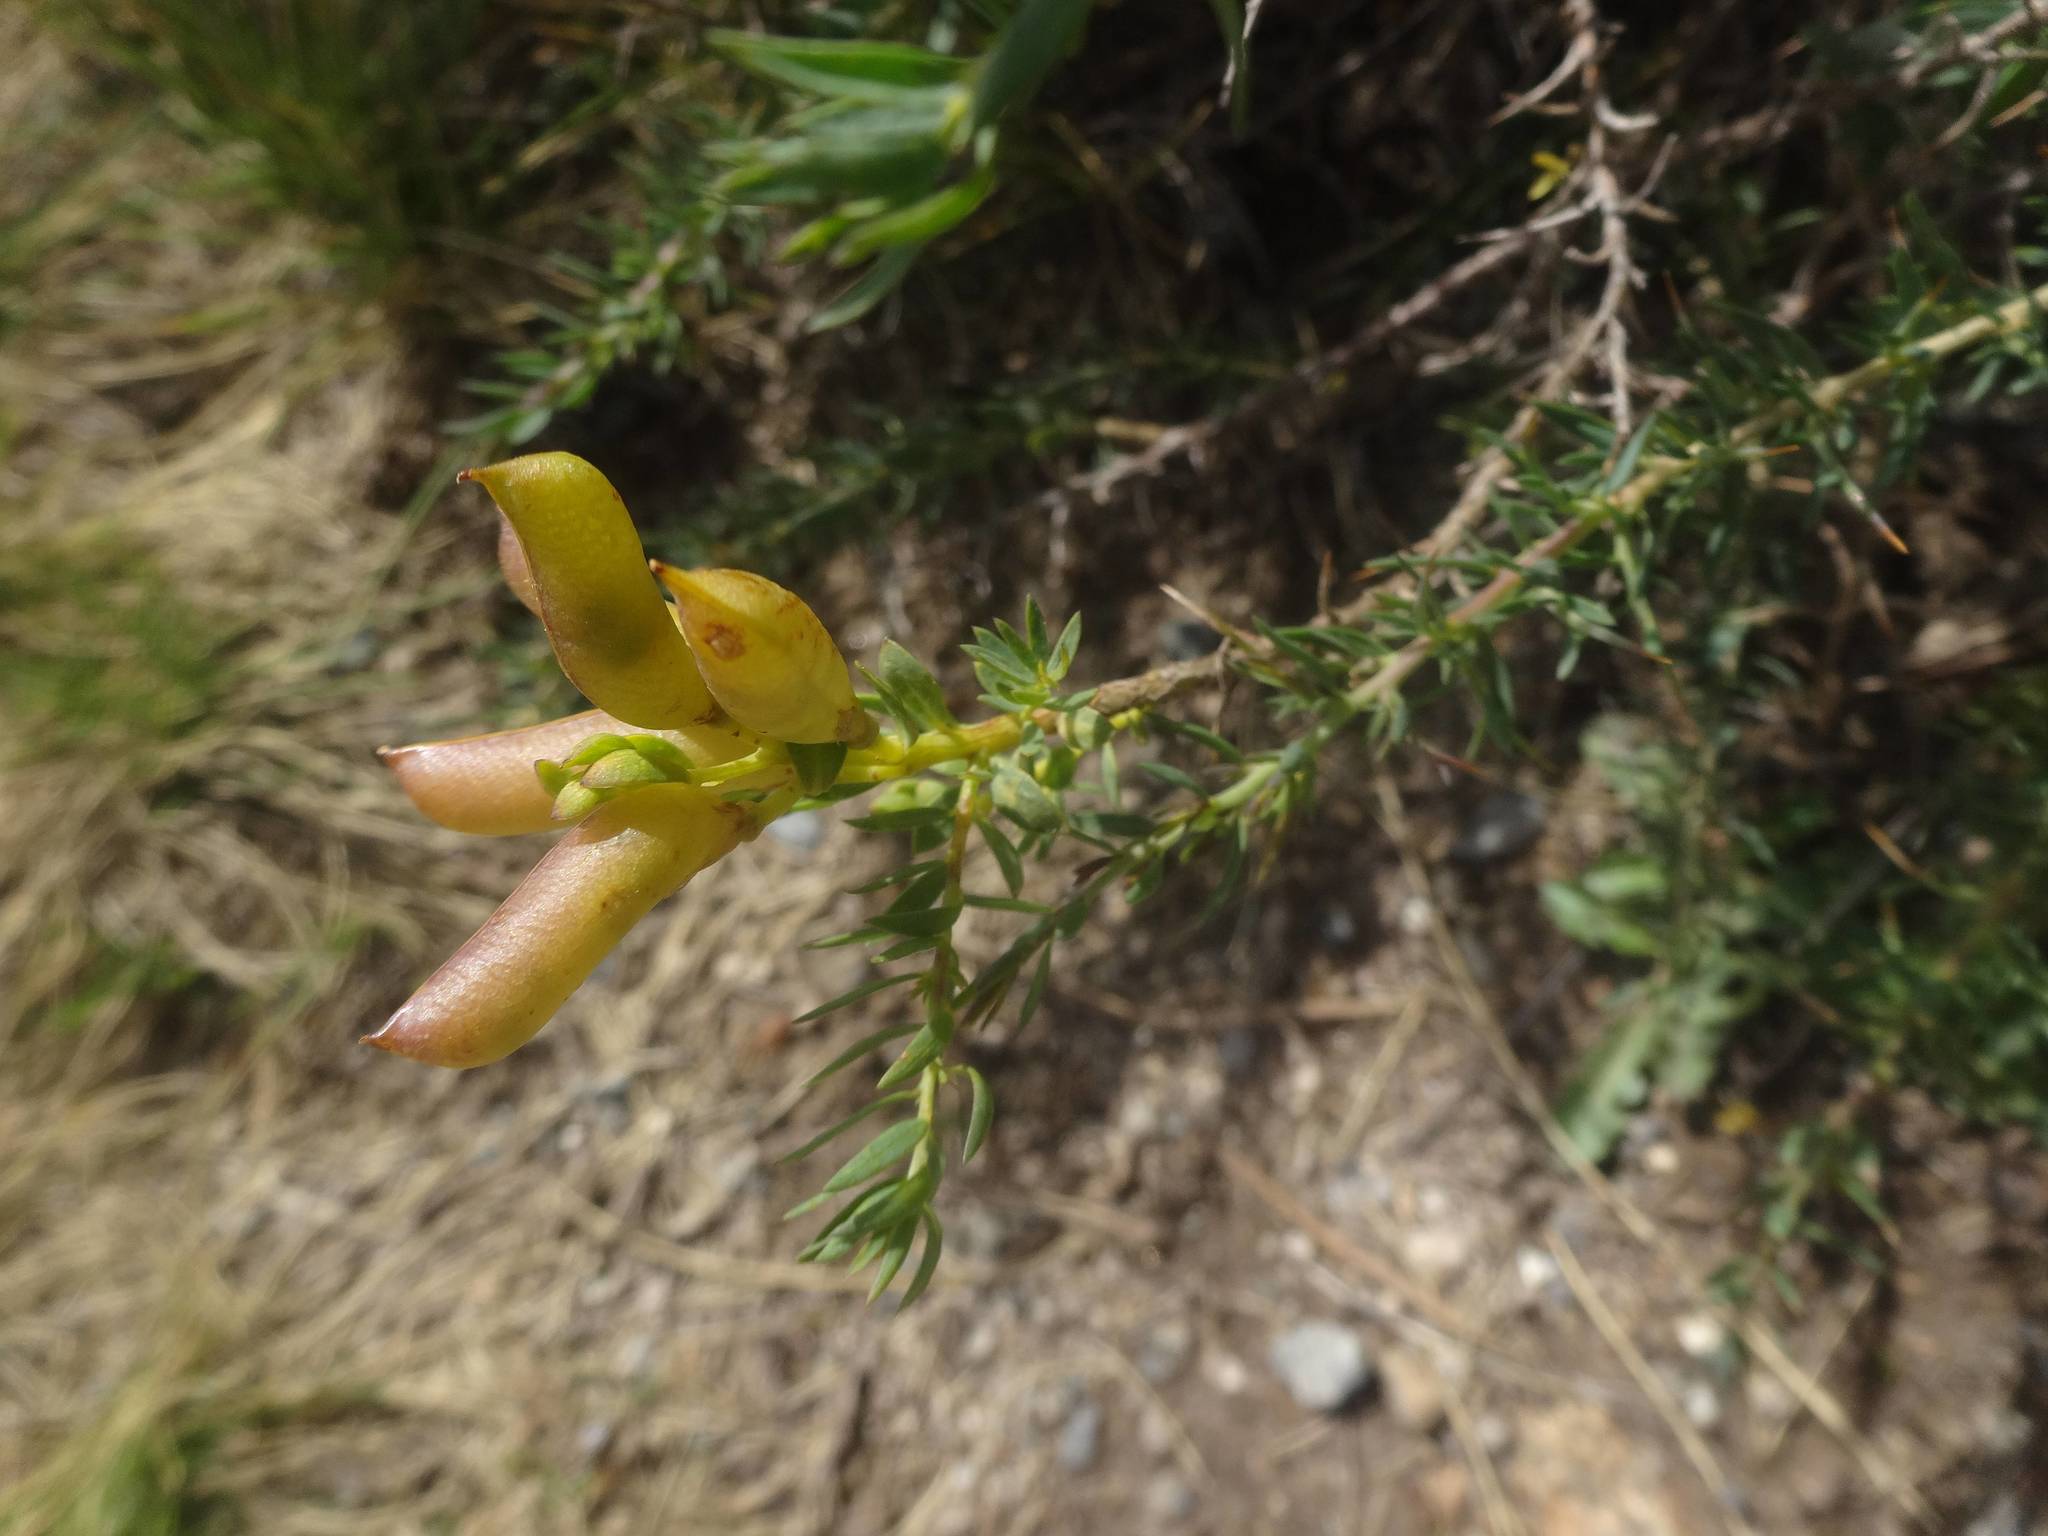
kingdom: Plantae
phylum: Tracheophyta
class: Magnoliopsida
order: Fabales
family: Fabaceae
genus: Genista
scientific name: Genista anglica
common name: Petty whin
